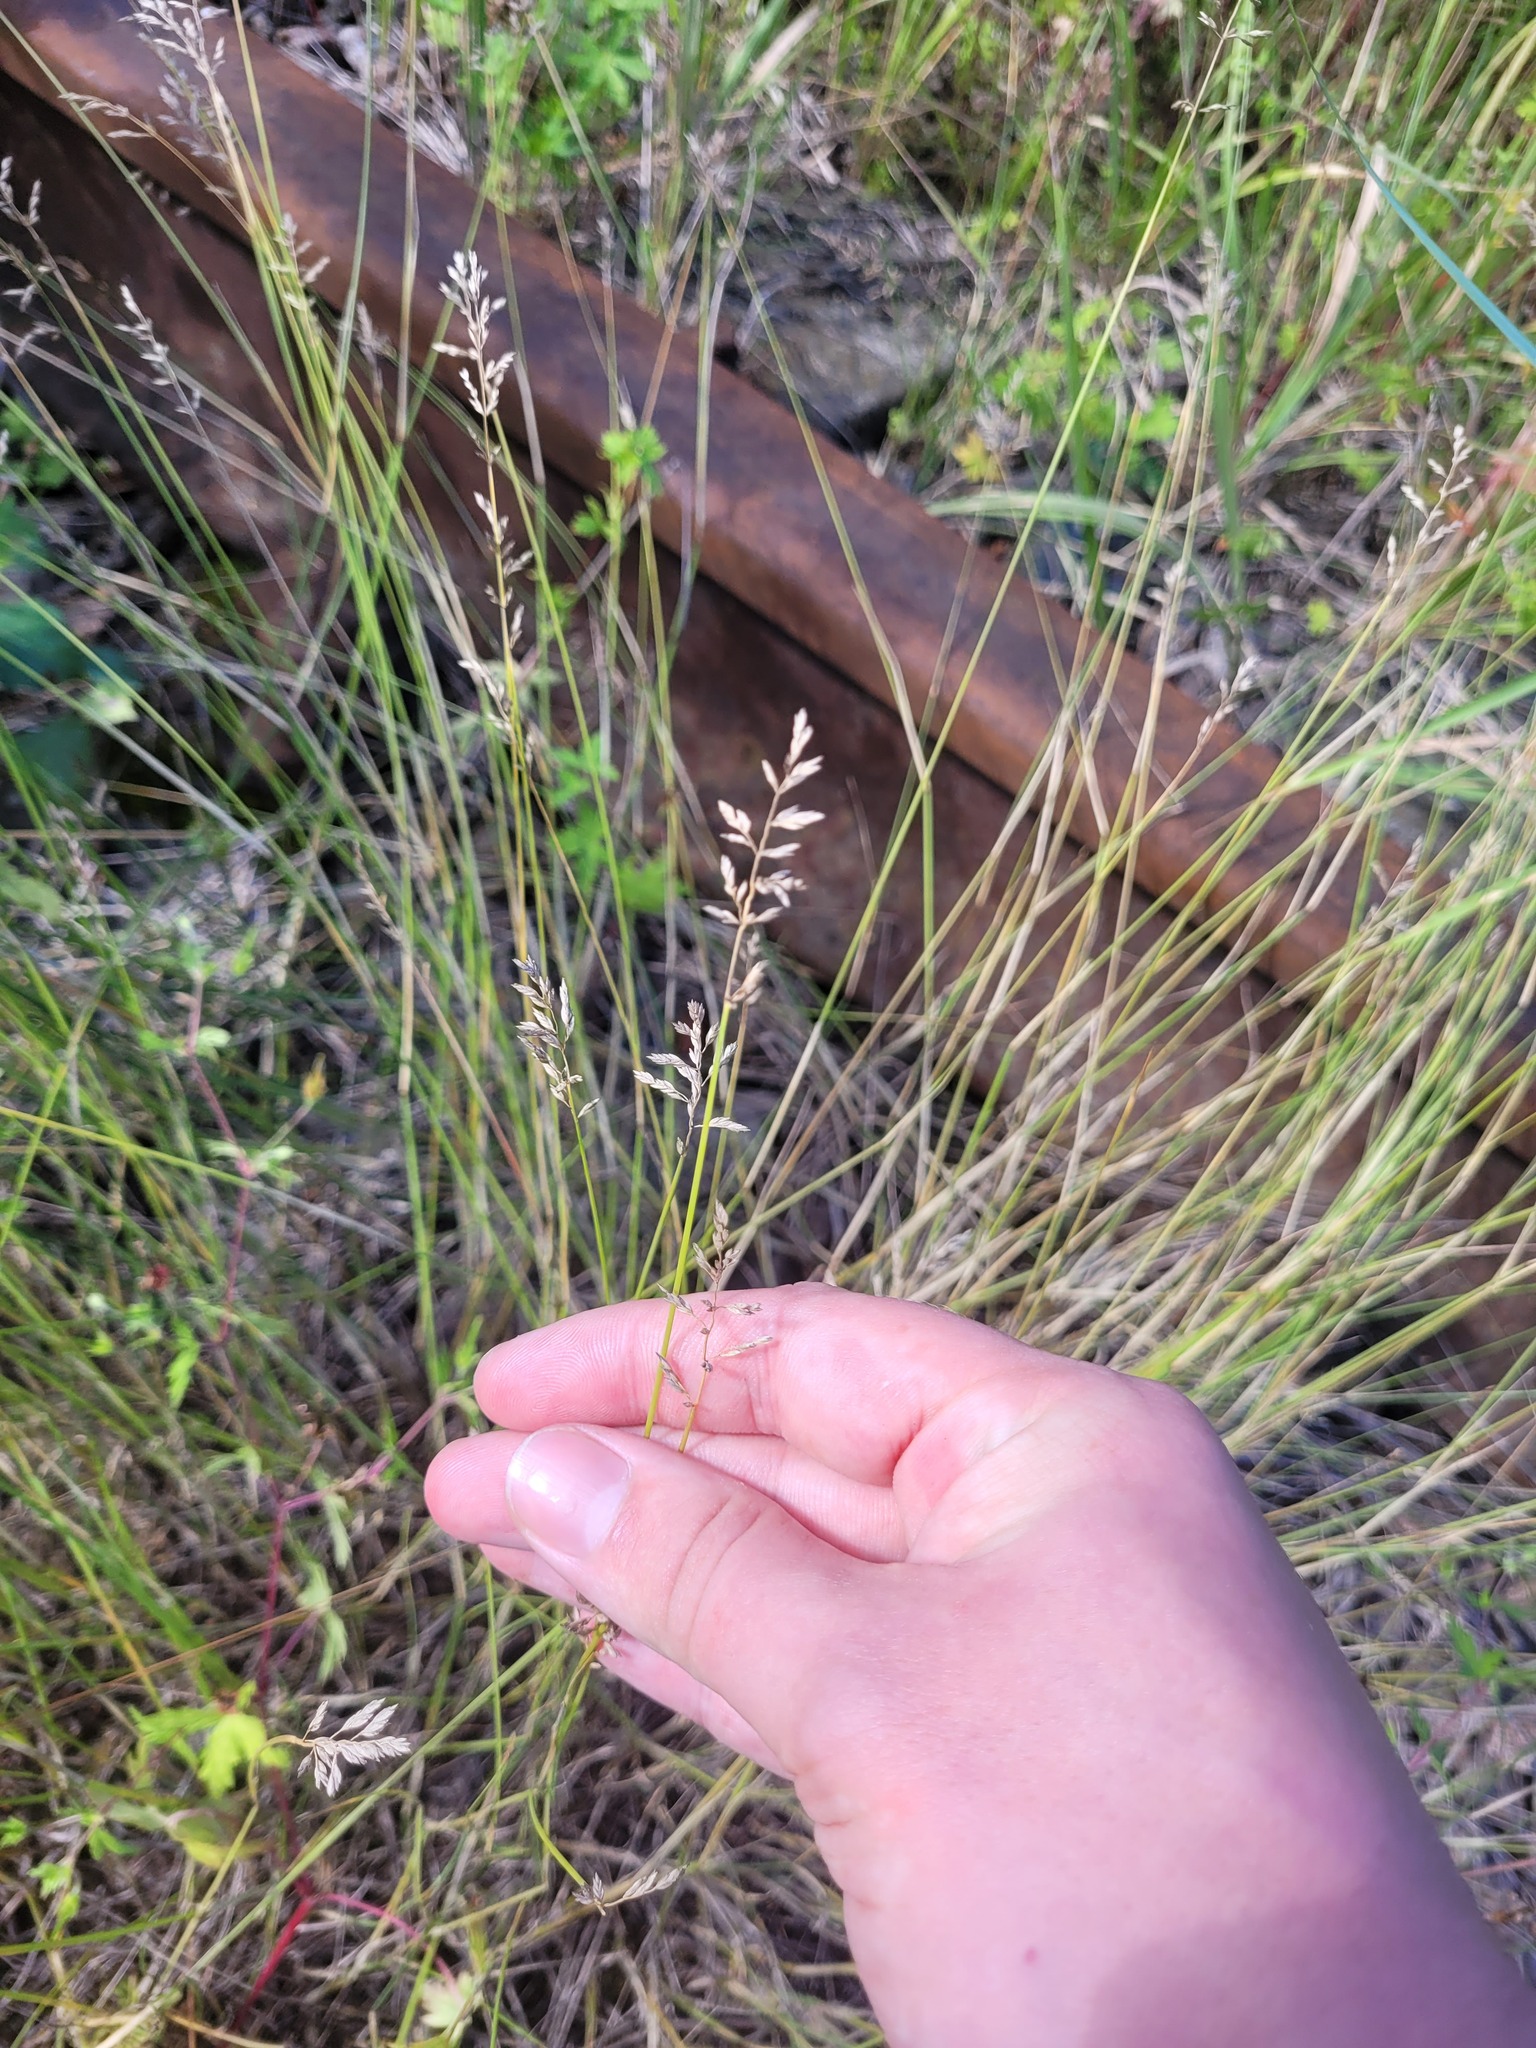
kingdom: Plantae
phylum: Tracheophyta
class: Liliopsida
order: Poales
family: Poaceae
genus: Poa
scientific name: Poa compressa
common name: Canada bluegrass
